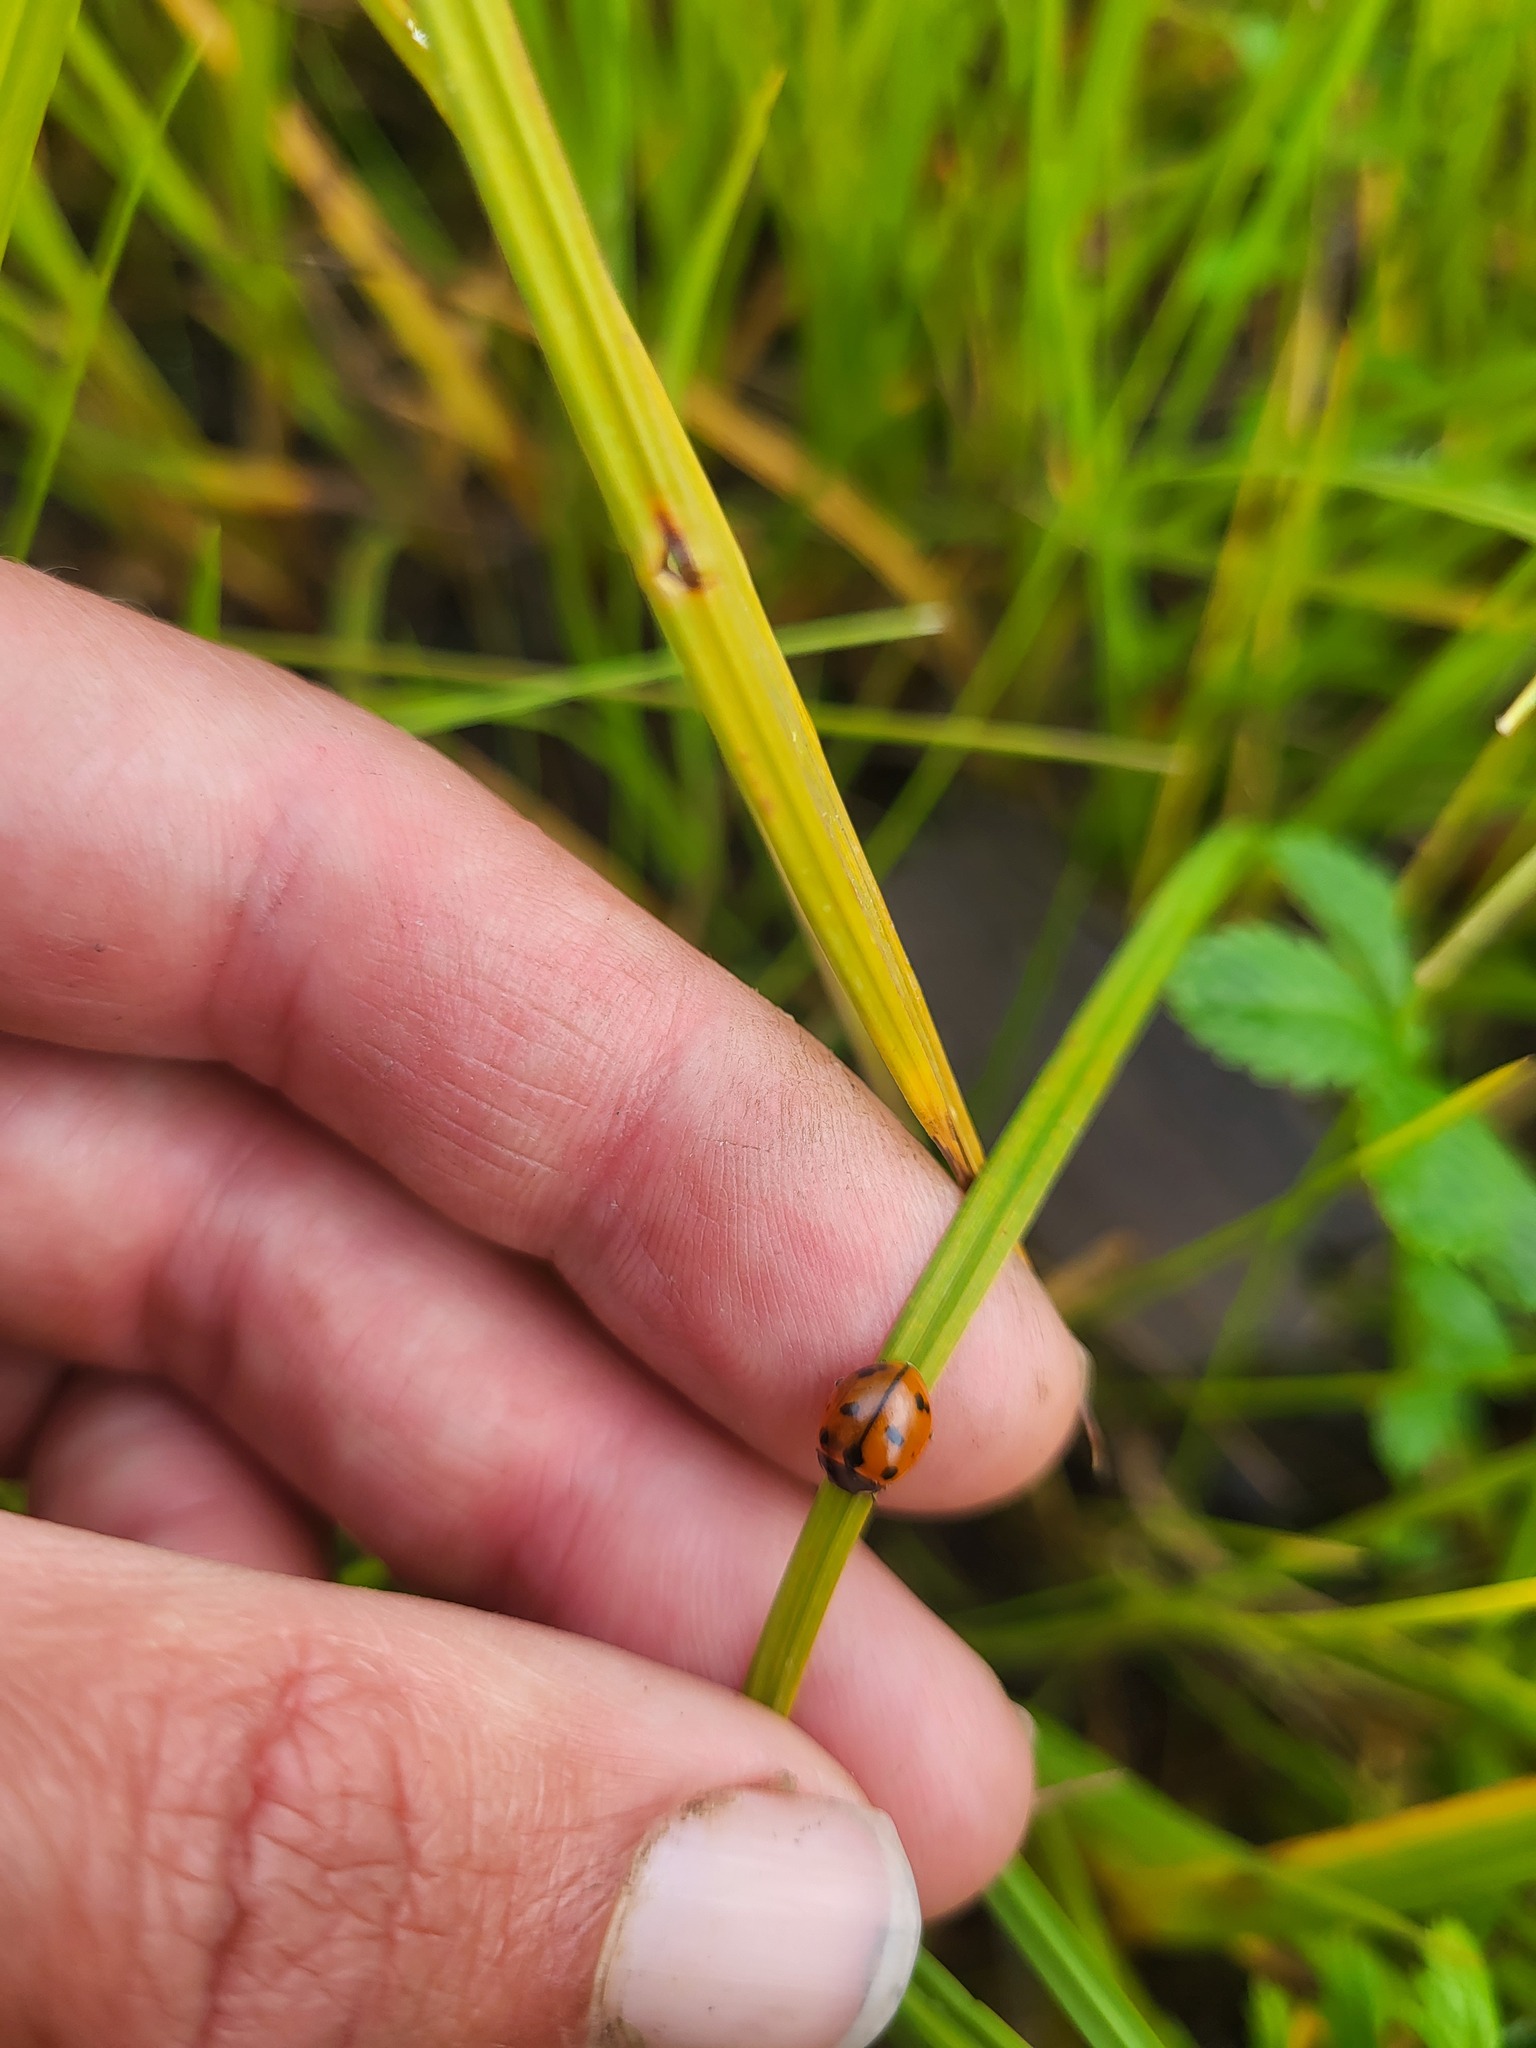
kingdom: Animalia
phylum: Arthropoda
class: Insecta
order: Coleoptera
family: Coccinellidae
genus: Coccinella
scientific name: Coccinella californica
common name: Lady beetle
